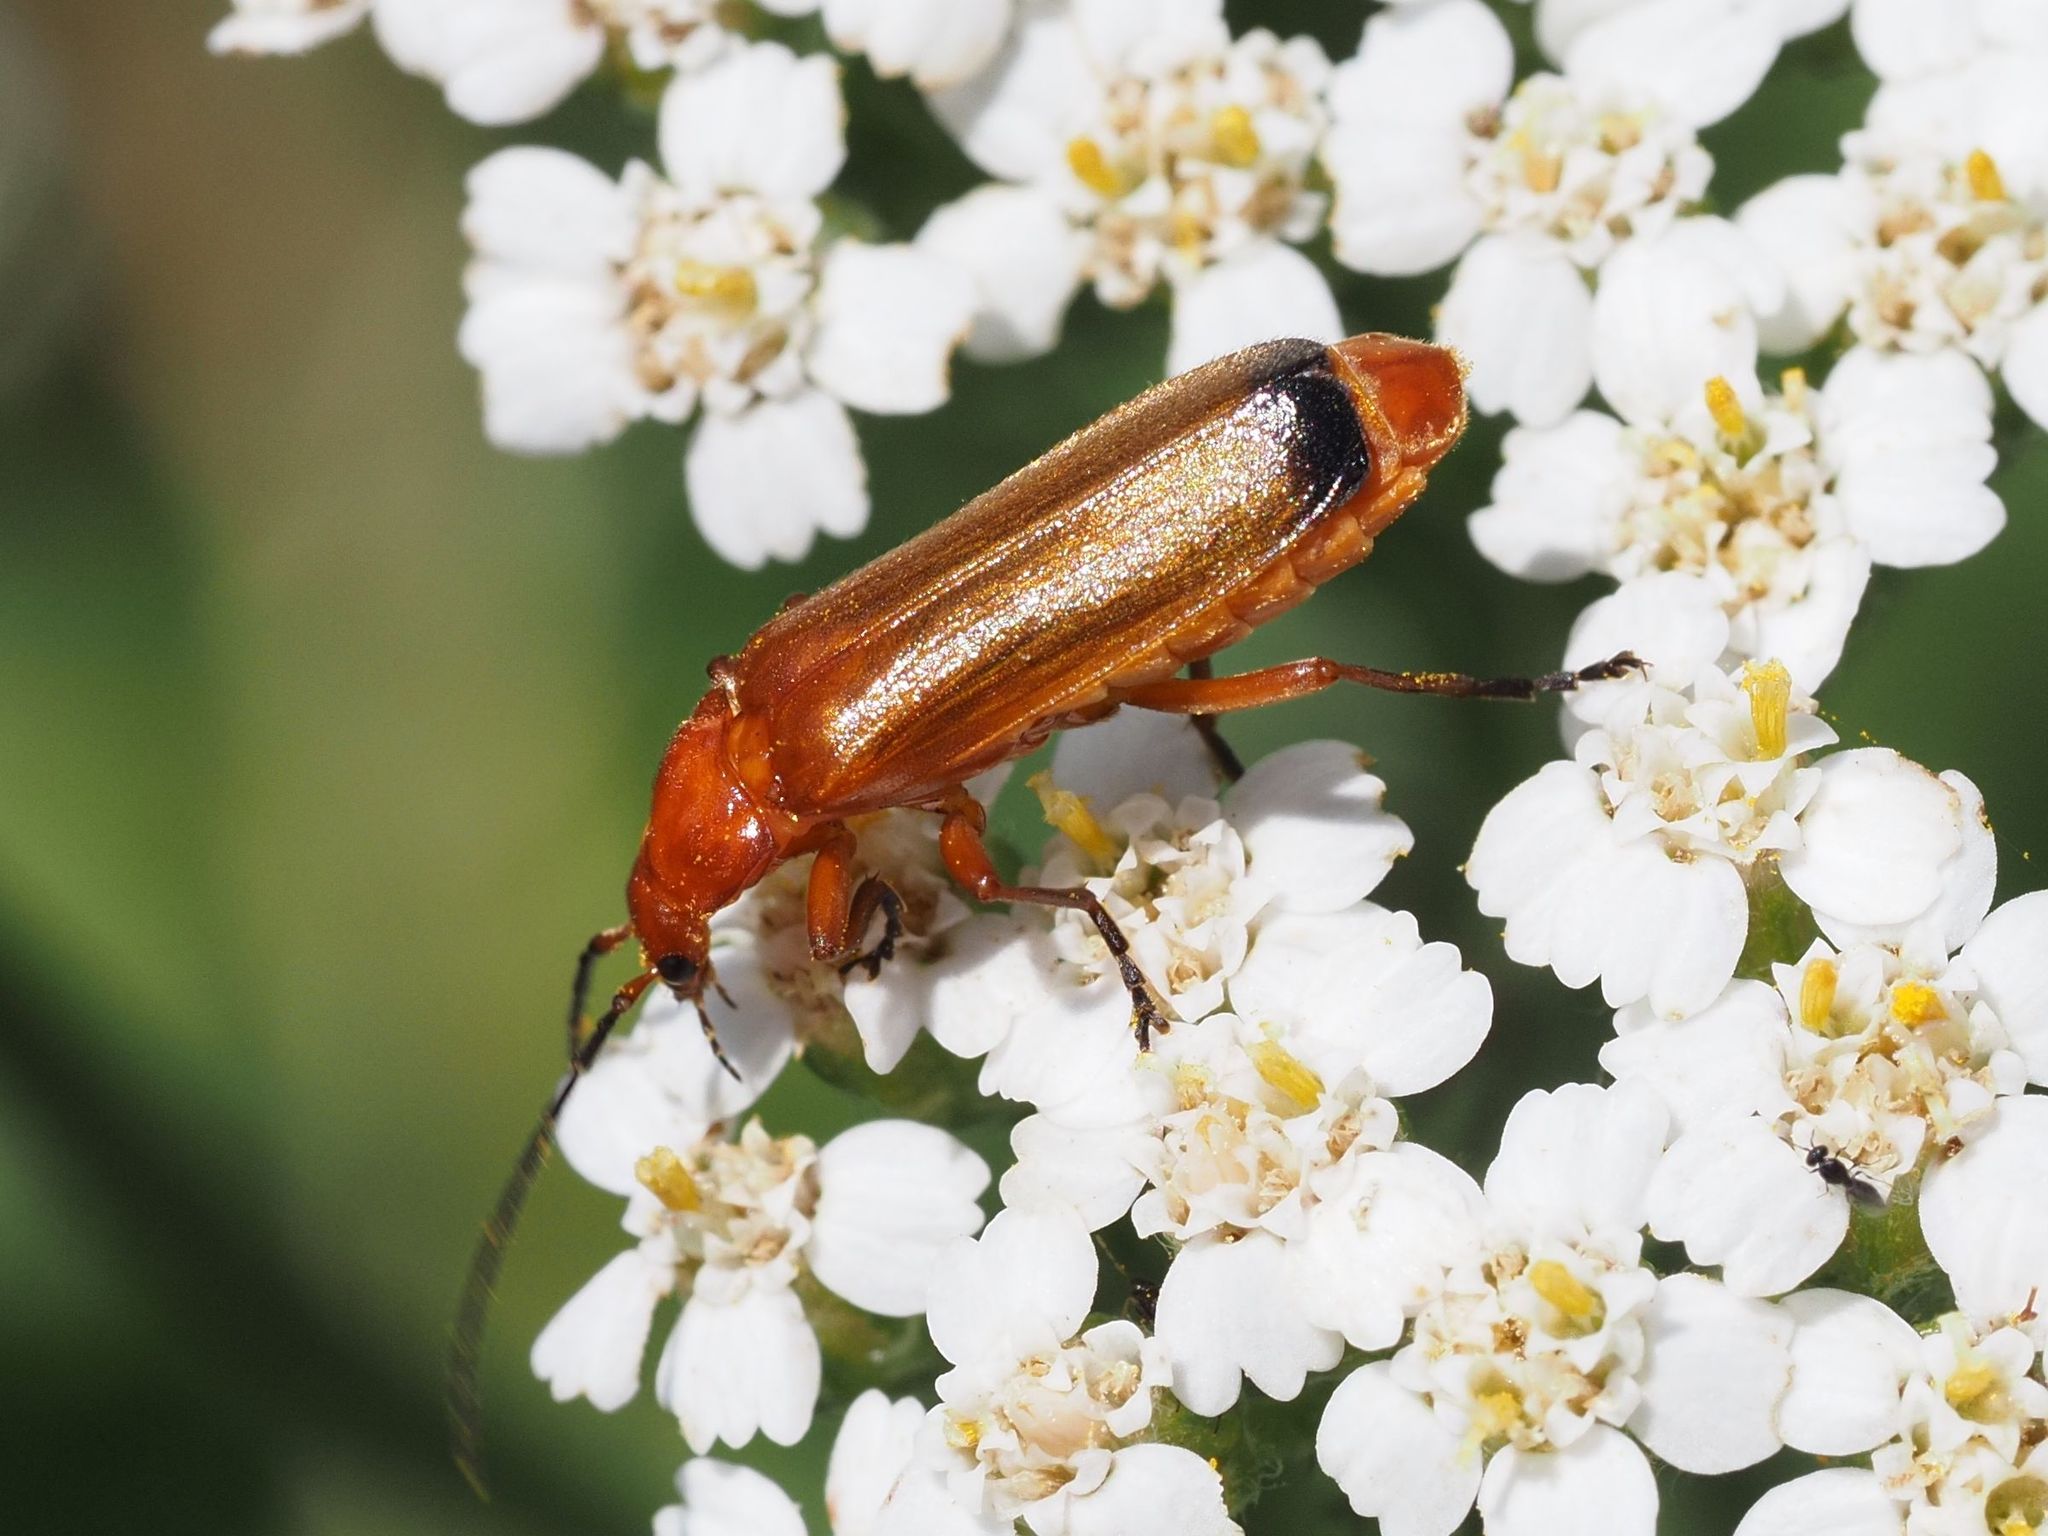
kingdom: Animalia
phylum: Arthropoda
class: Insecta
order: Coleoptera
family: Cantharidae
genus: Rhagonycha
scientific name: Rhagonycha fulva
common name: Common red soldier beetle
